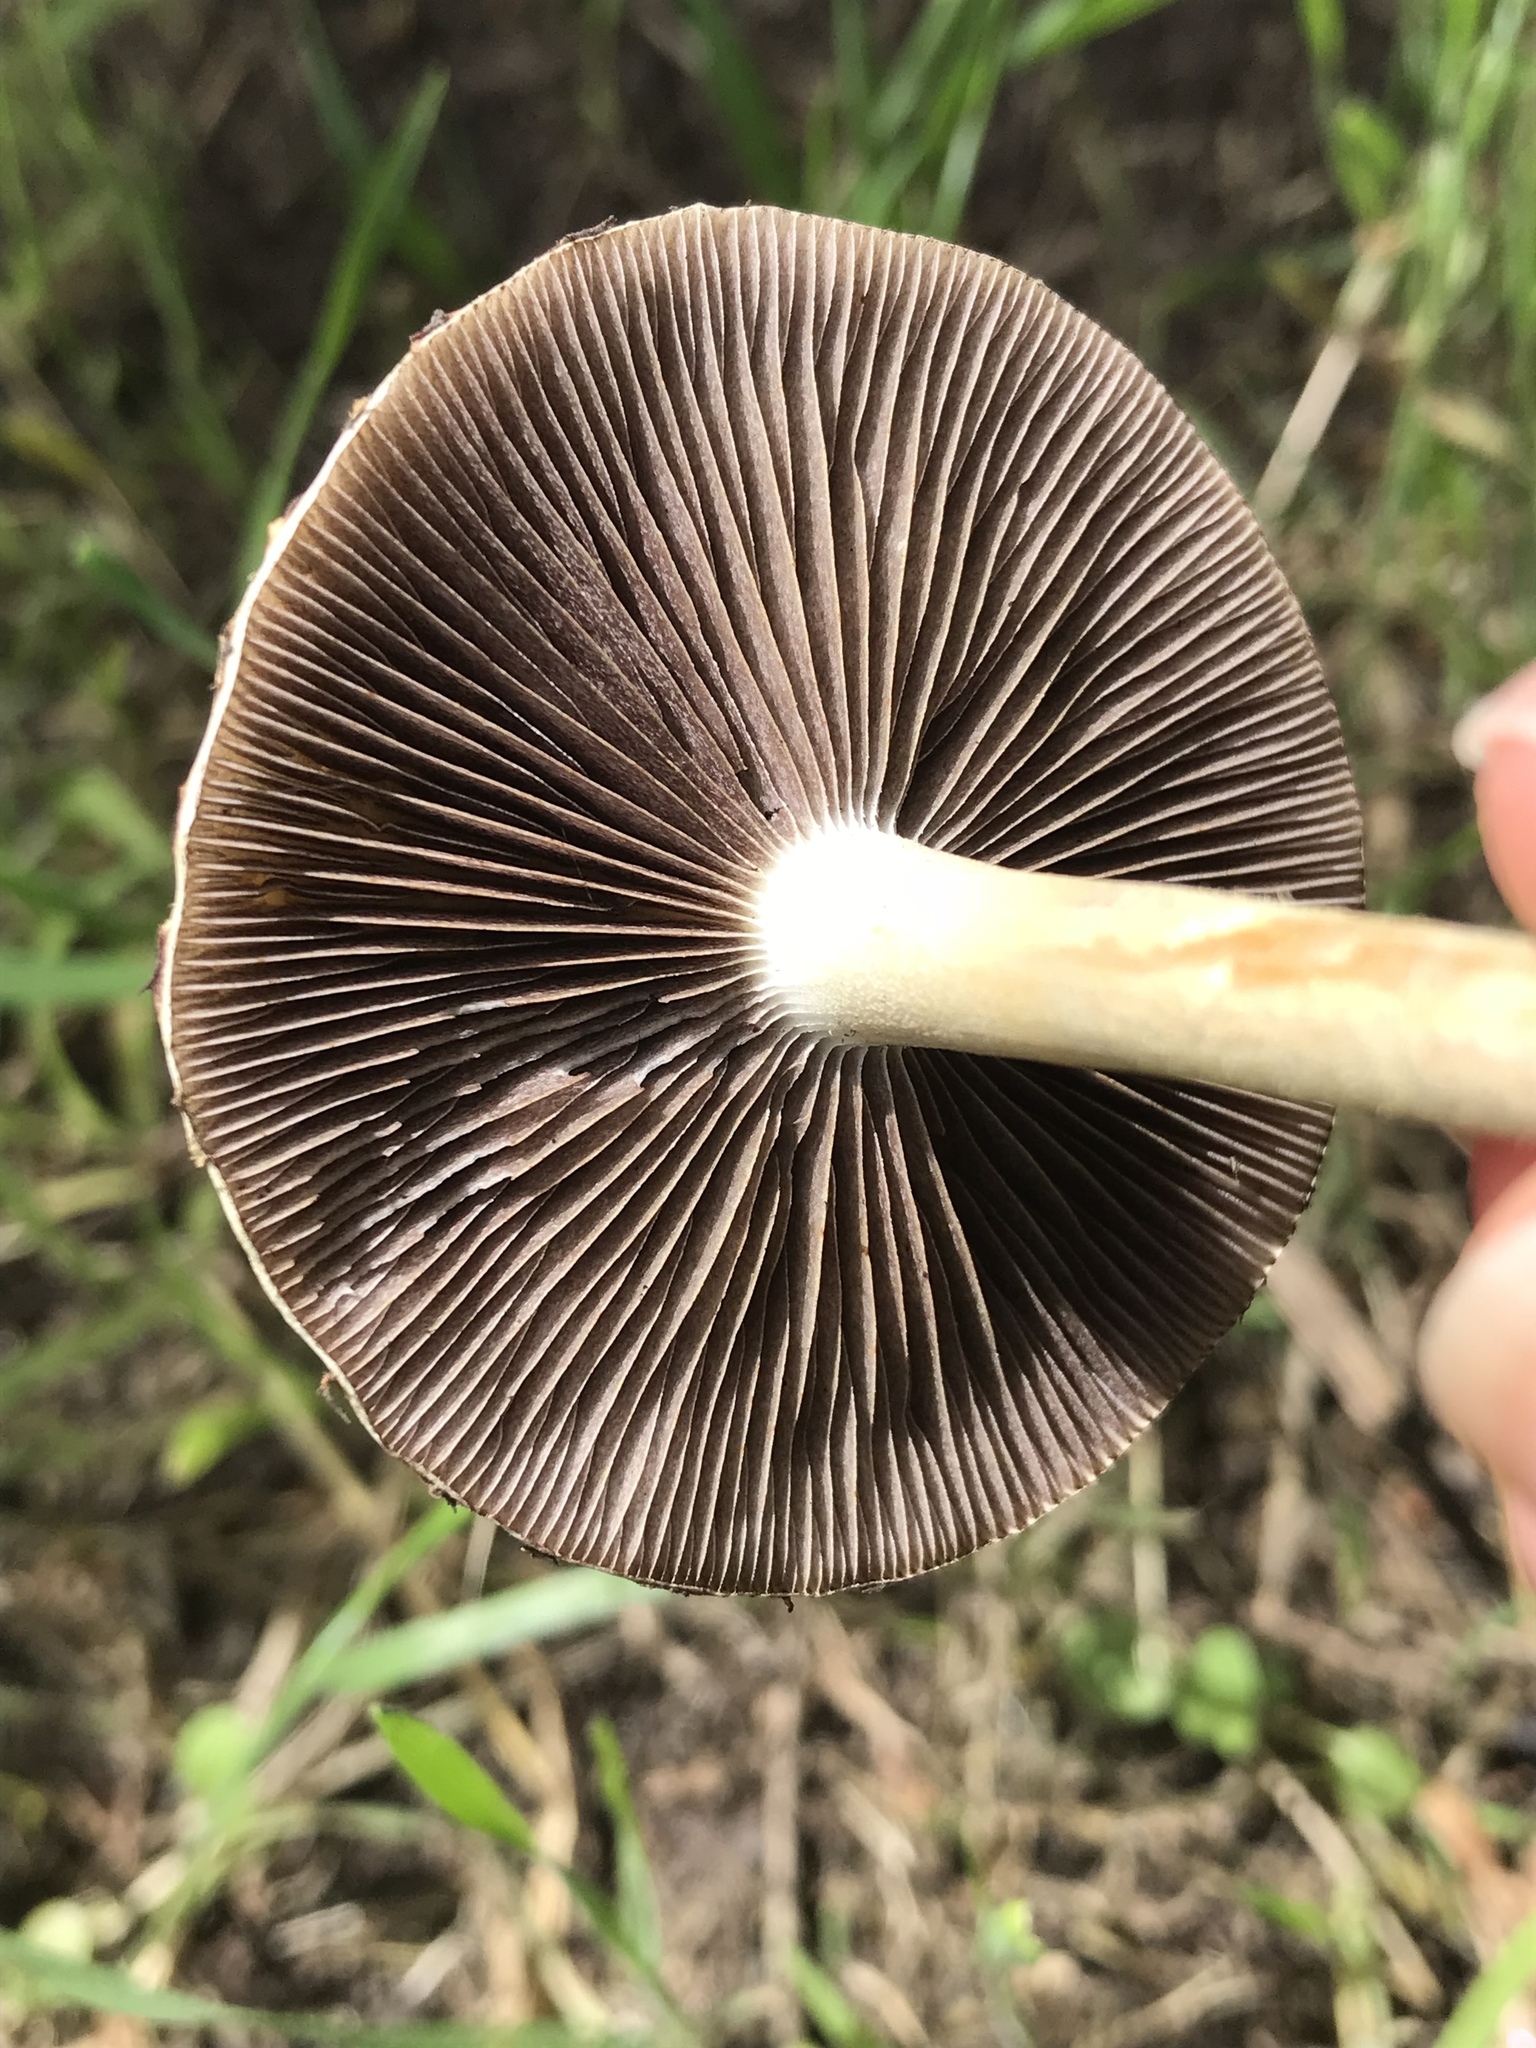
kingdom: Fungi
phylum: Basidiomycota
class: Agaricomycetes
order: Agaricales
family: Strophariaceae
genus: Leratiomyces
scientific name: Leratiomyces percevalii
